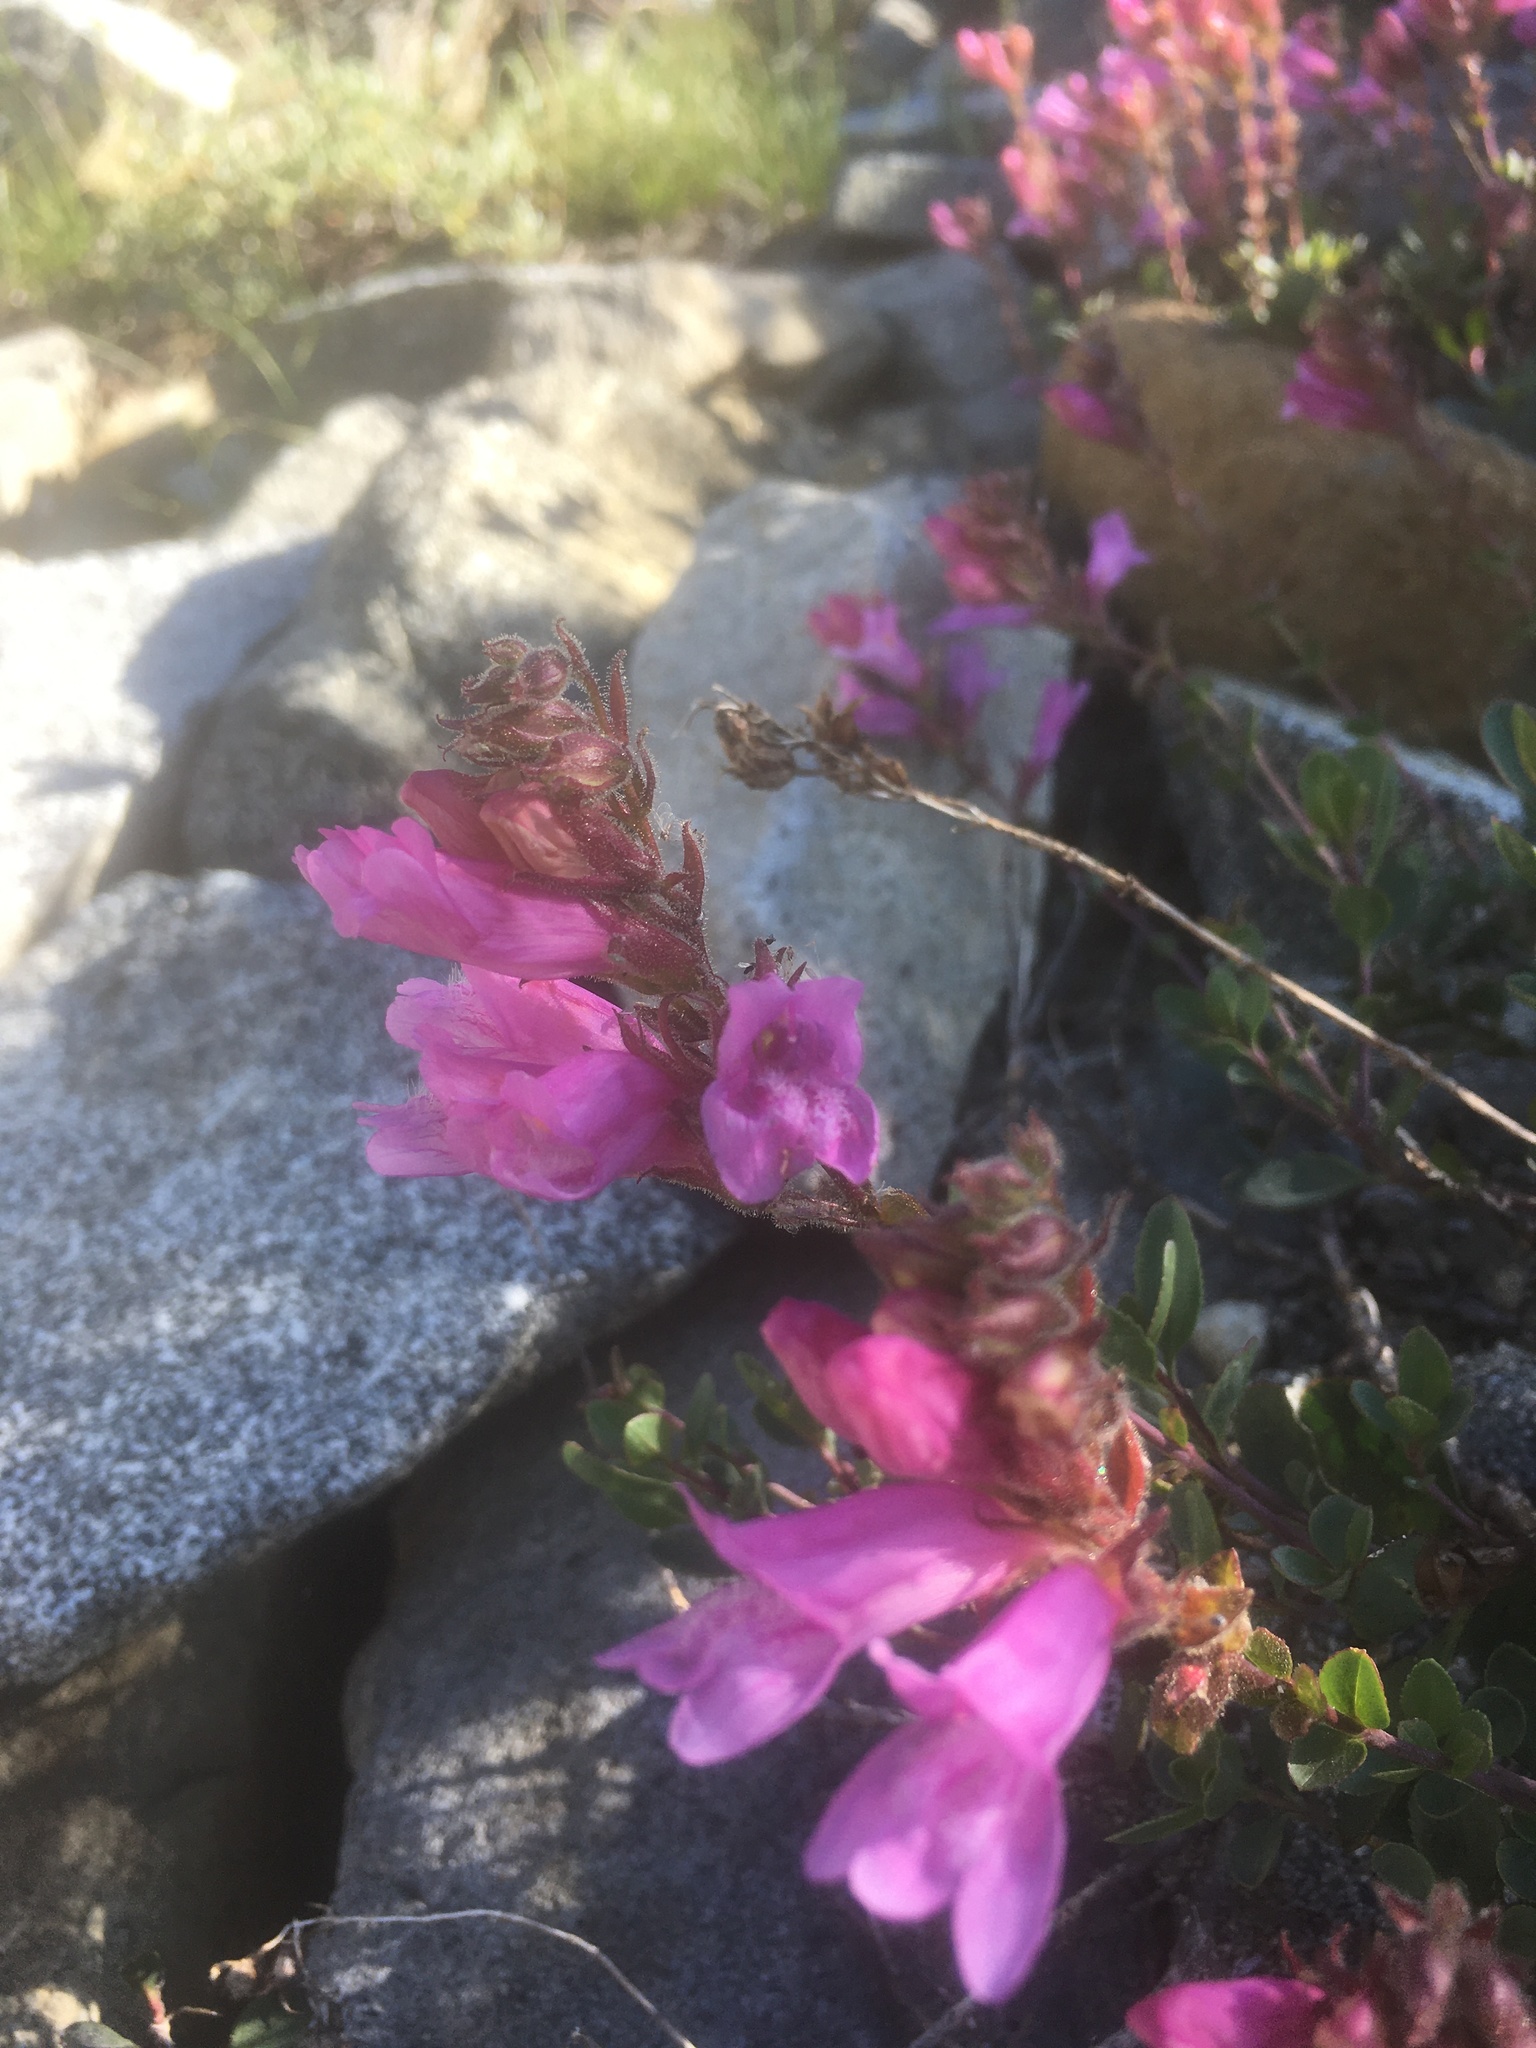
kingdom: Plantae
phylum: Tracheophyta
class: Magnoliopsida
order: Lamiales
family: Plantaginaceae
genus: Penstemon
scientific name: Penstemon newberryi
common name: Mountain-pride
